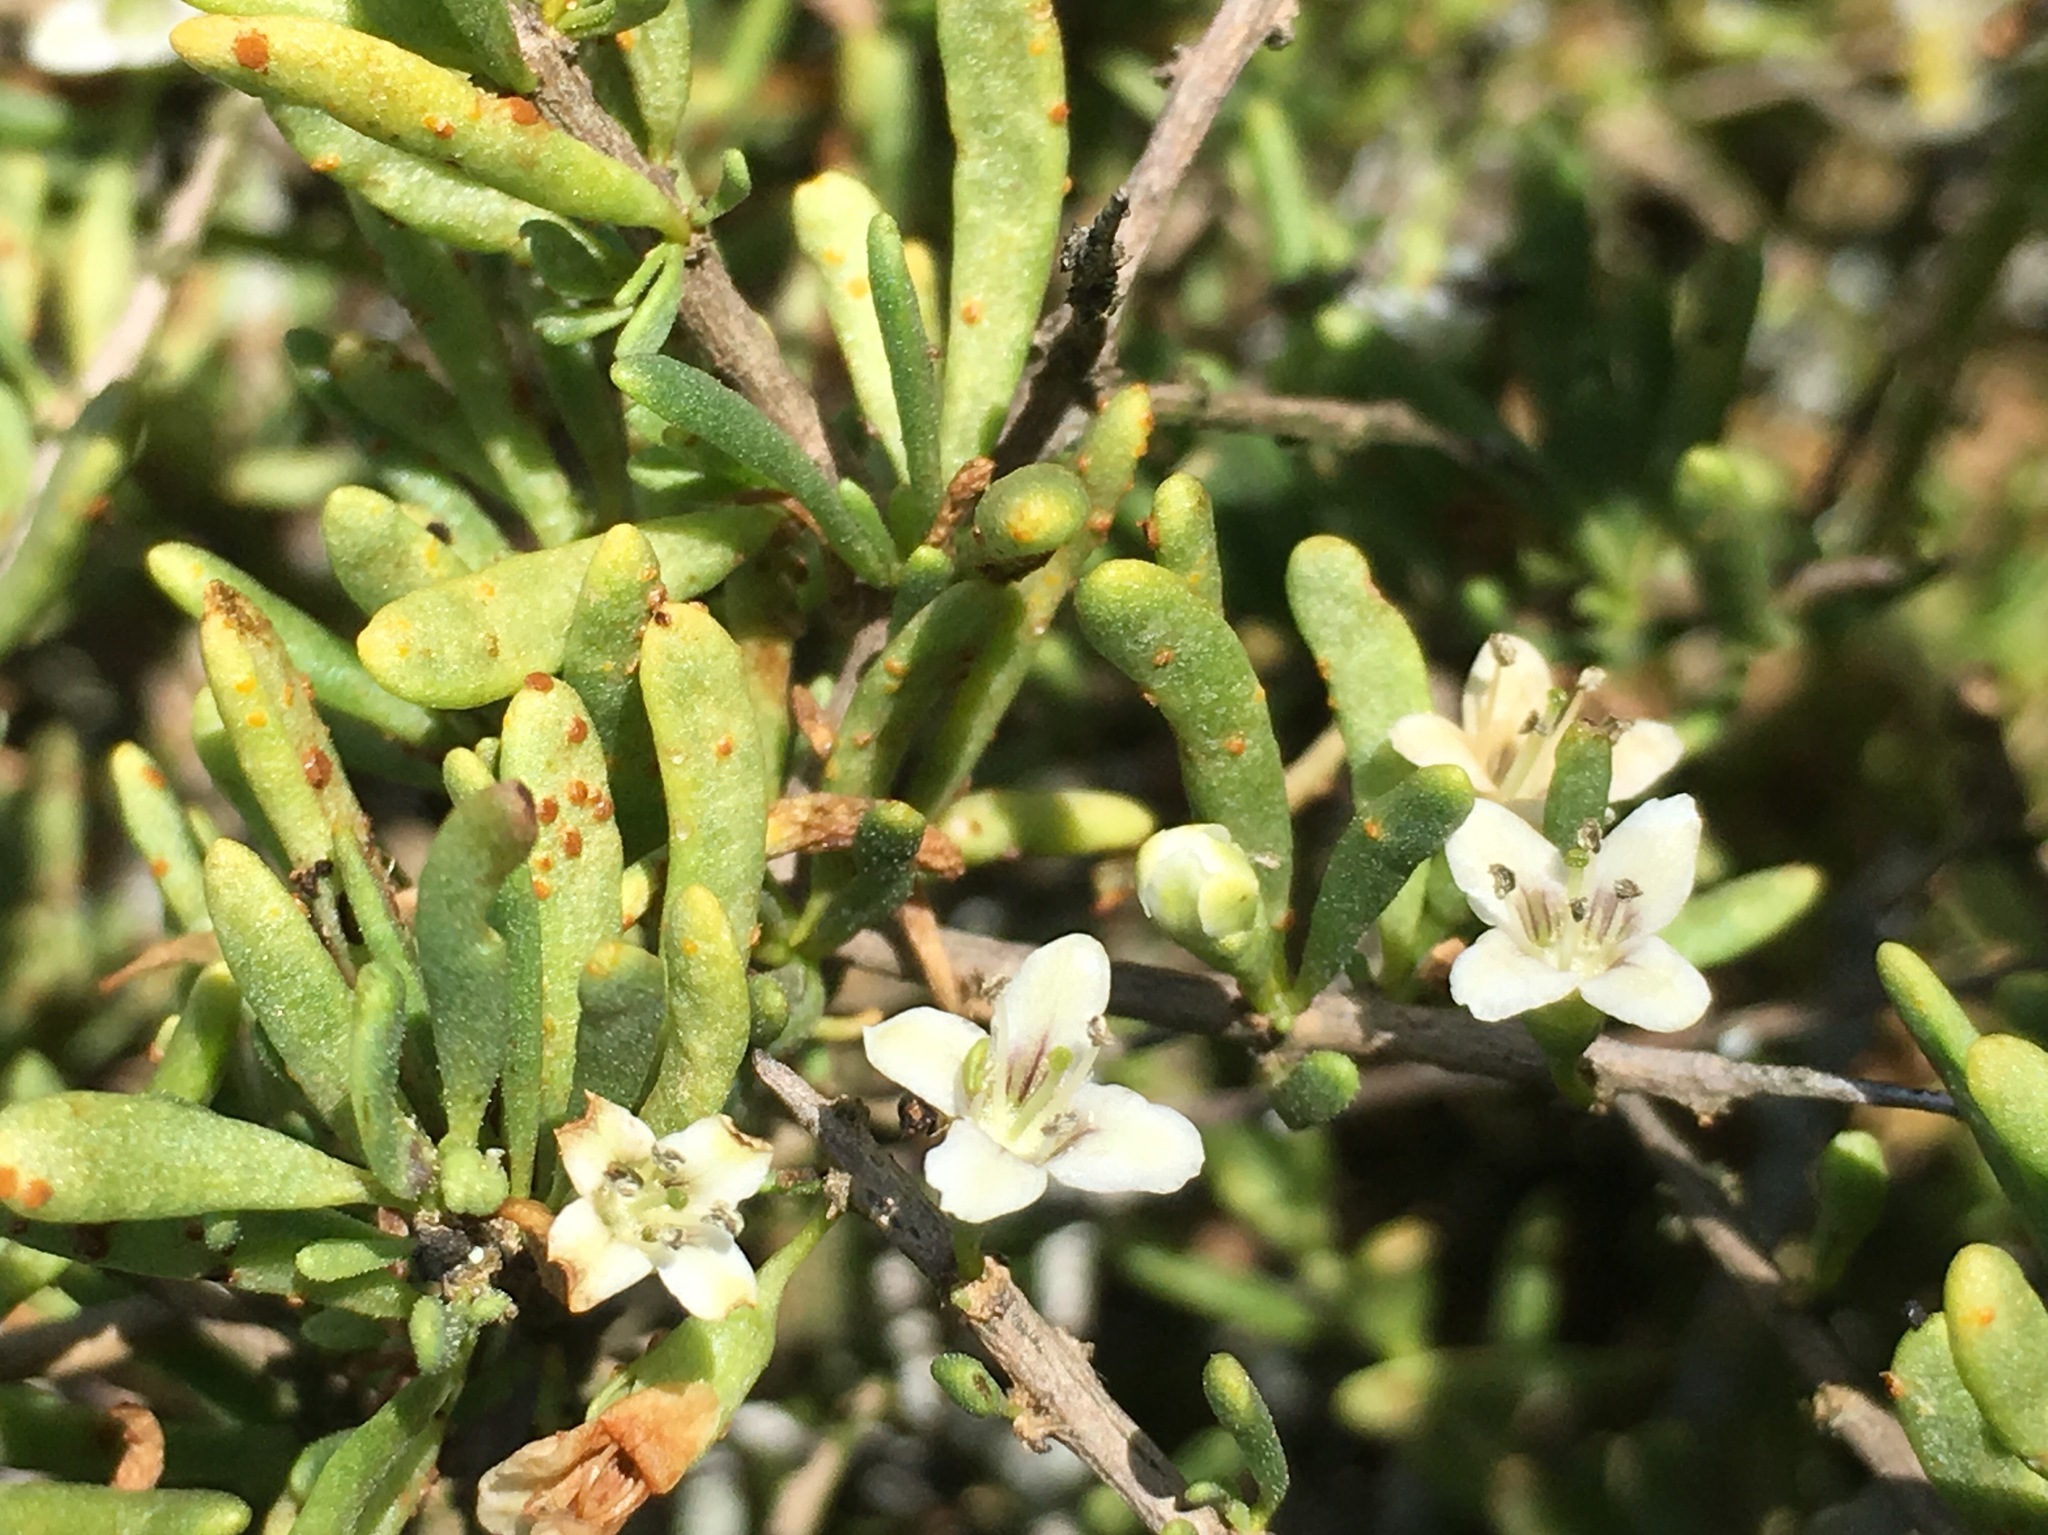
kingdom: Fungi
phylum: Basidiomycota
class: Pucciniomycetes
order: Pucciniales
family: Pucciniaceae
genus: Puccinia
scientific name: Puccinia globosipes
